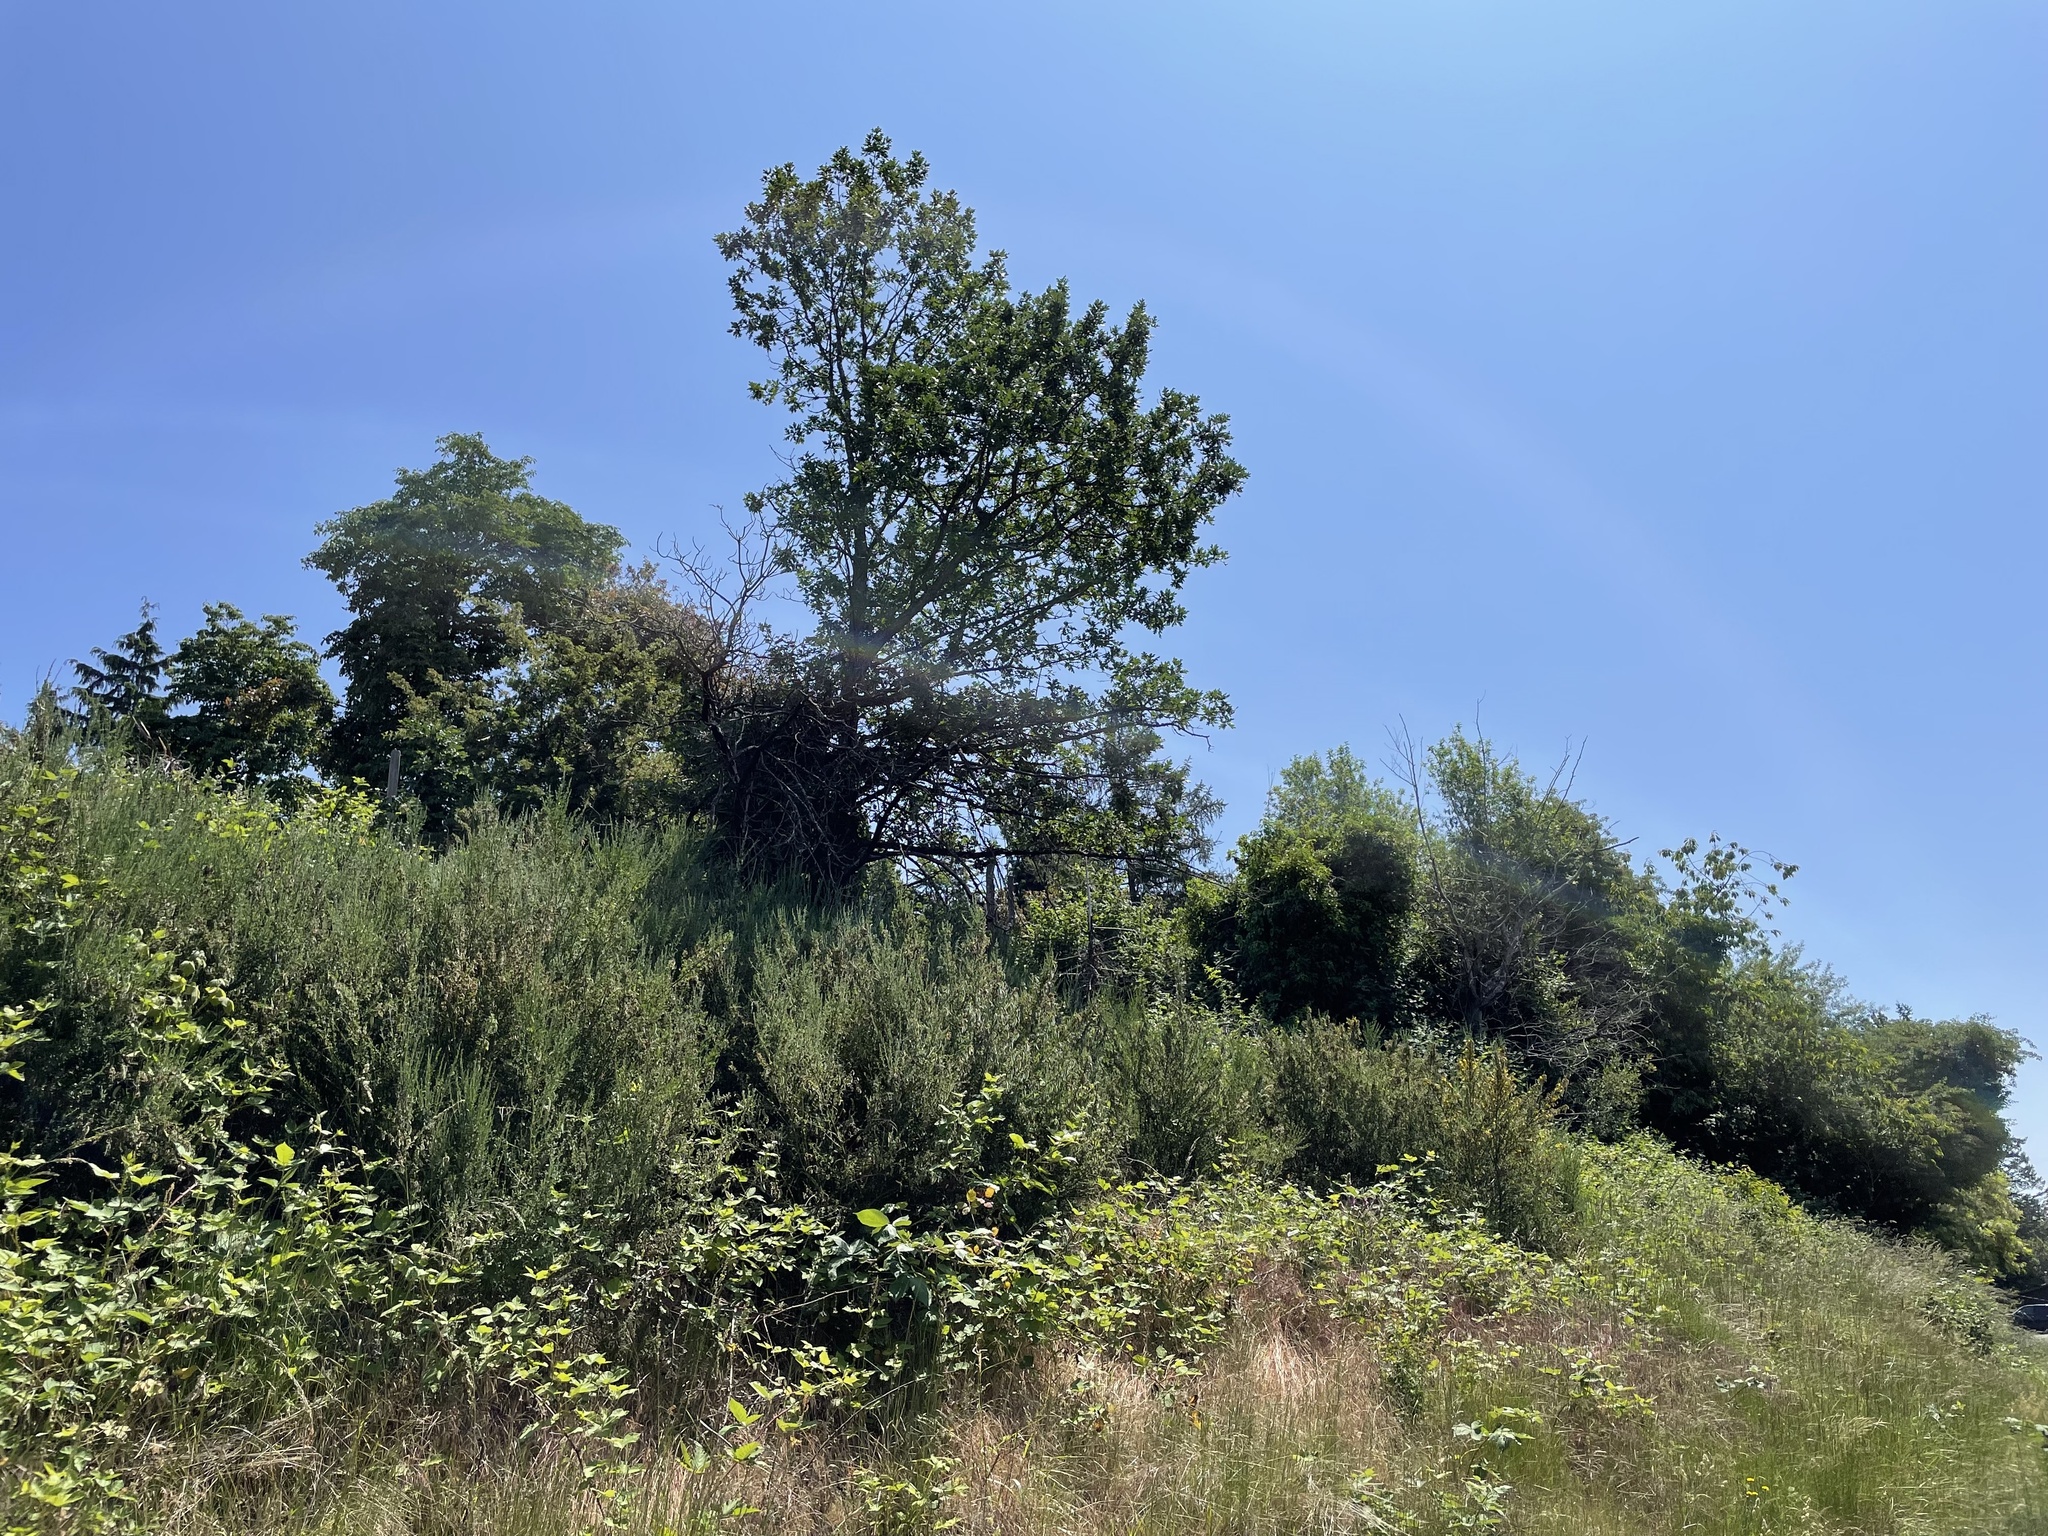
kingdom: Plantae
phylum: Tracheophyta
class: Magnoliopsida
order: Fagales
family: Fagaceae
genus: Quercus
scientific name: Quercus garryana
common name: Garry oak
